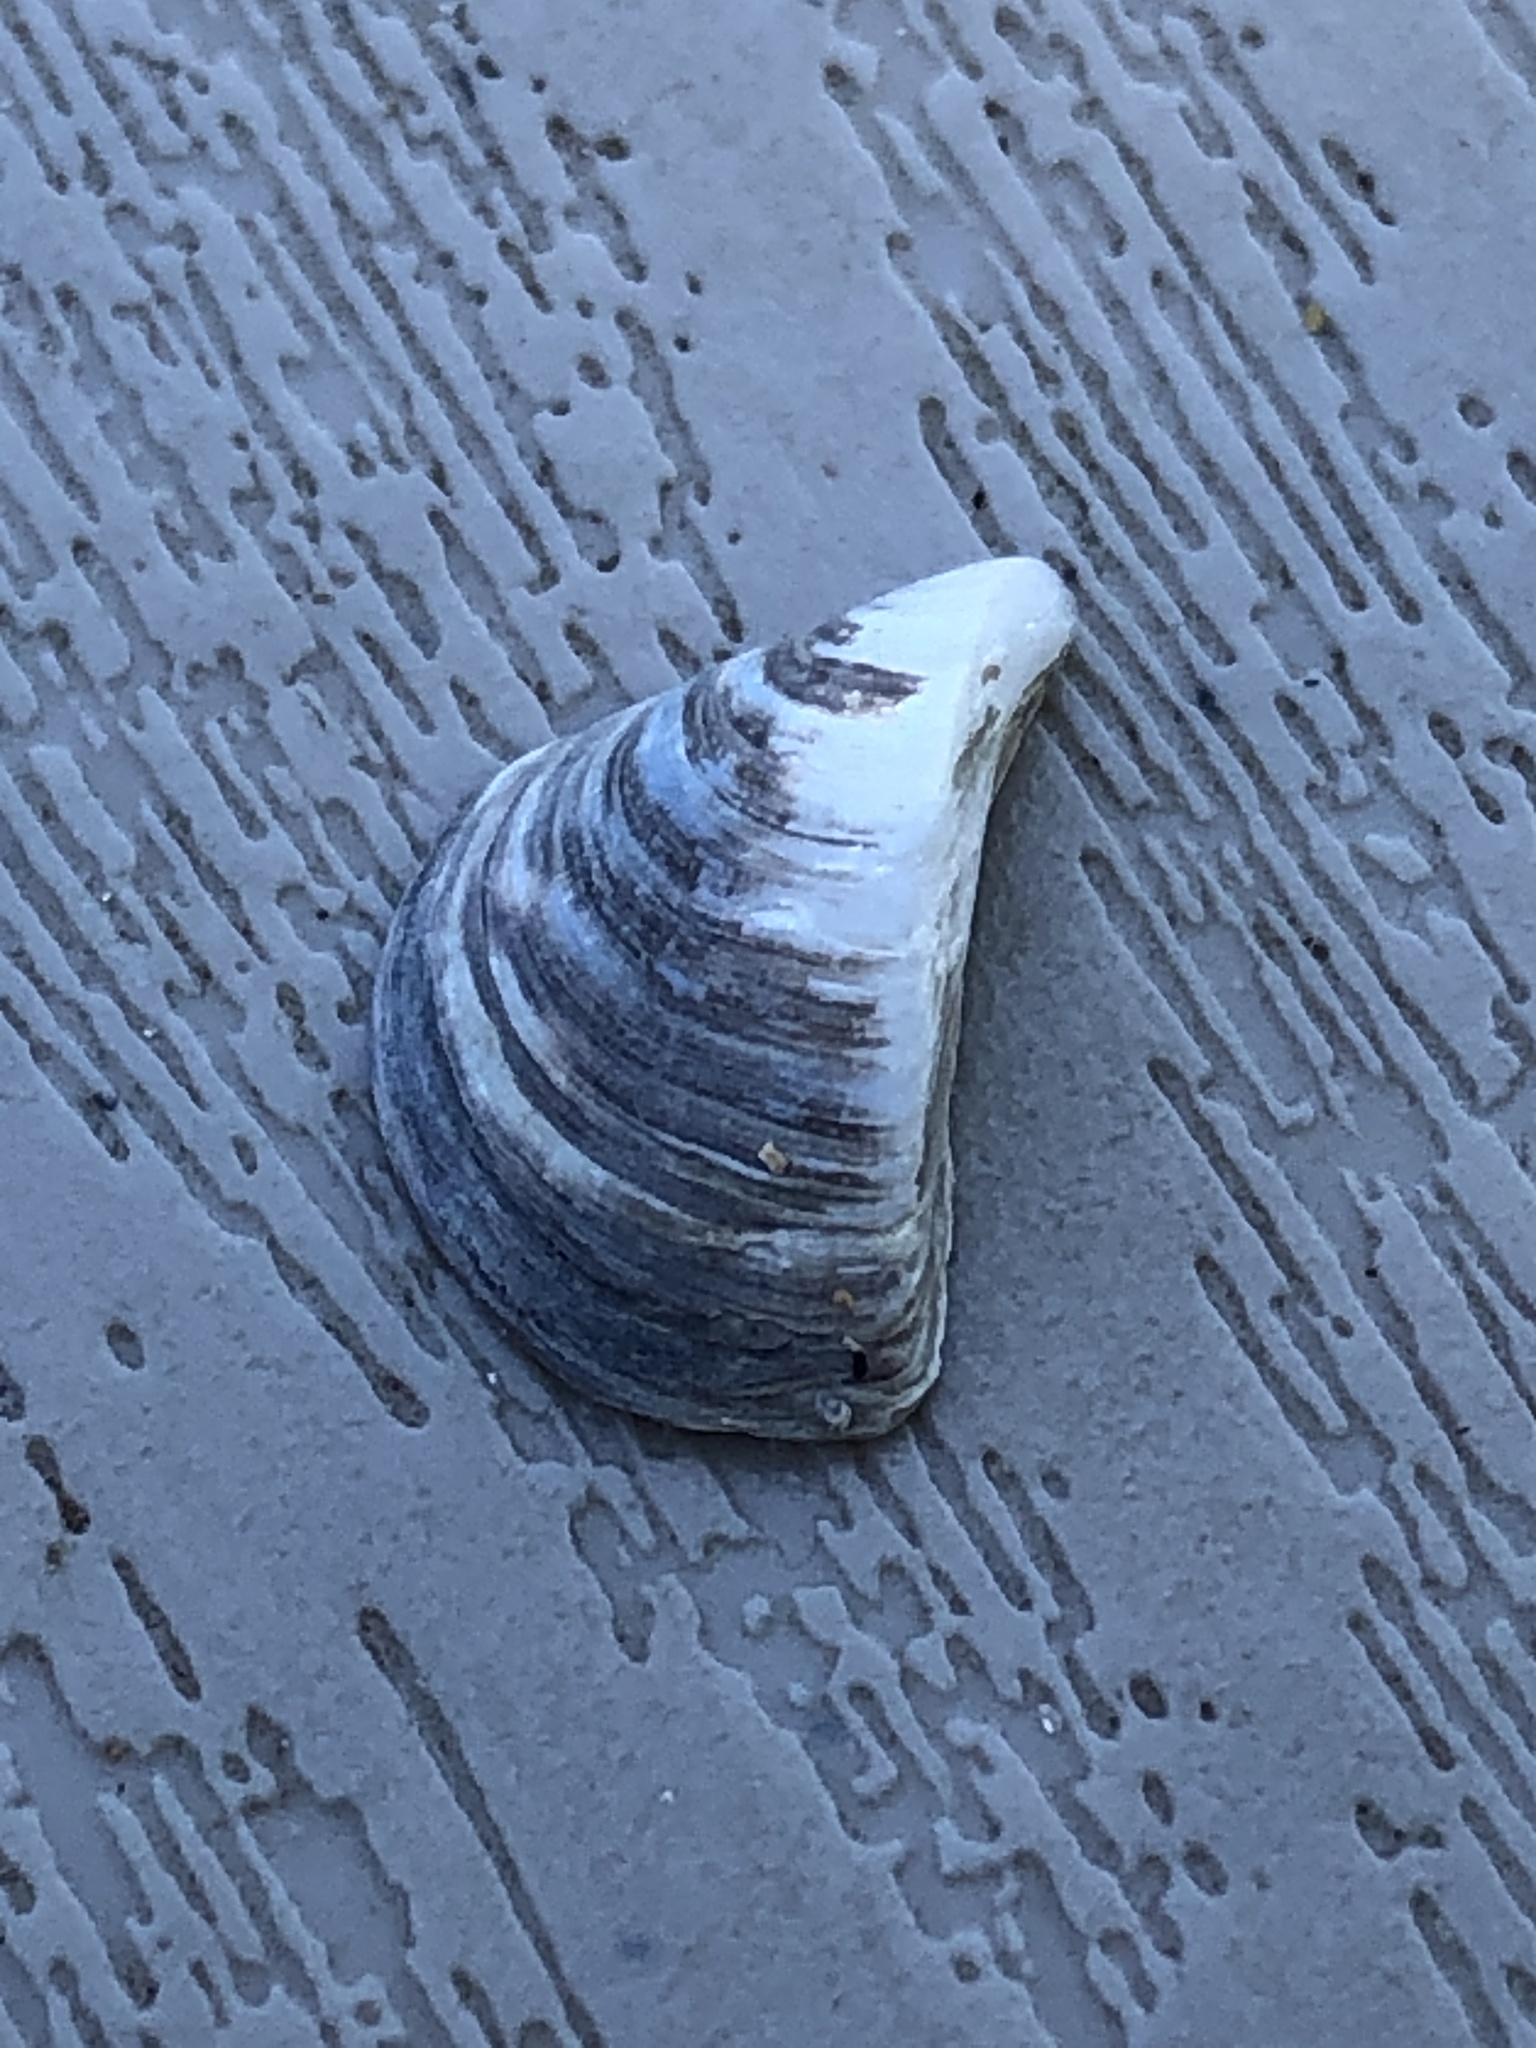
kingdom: Animalia
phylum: Mollusca
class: Bivalvia
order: Myida
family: Dreissenidae
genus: Dreissena
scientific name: Dreissena polymorpha
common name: Zebra mussel
